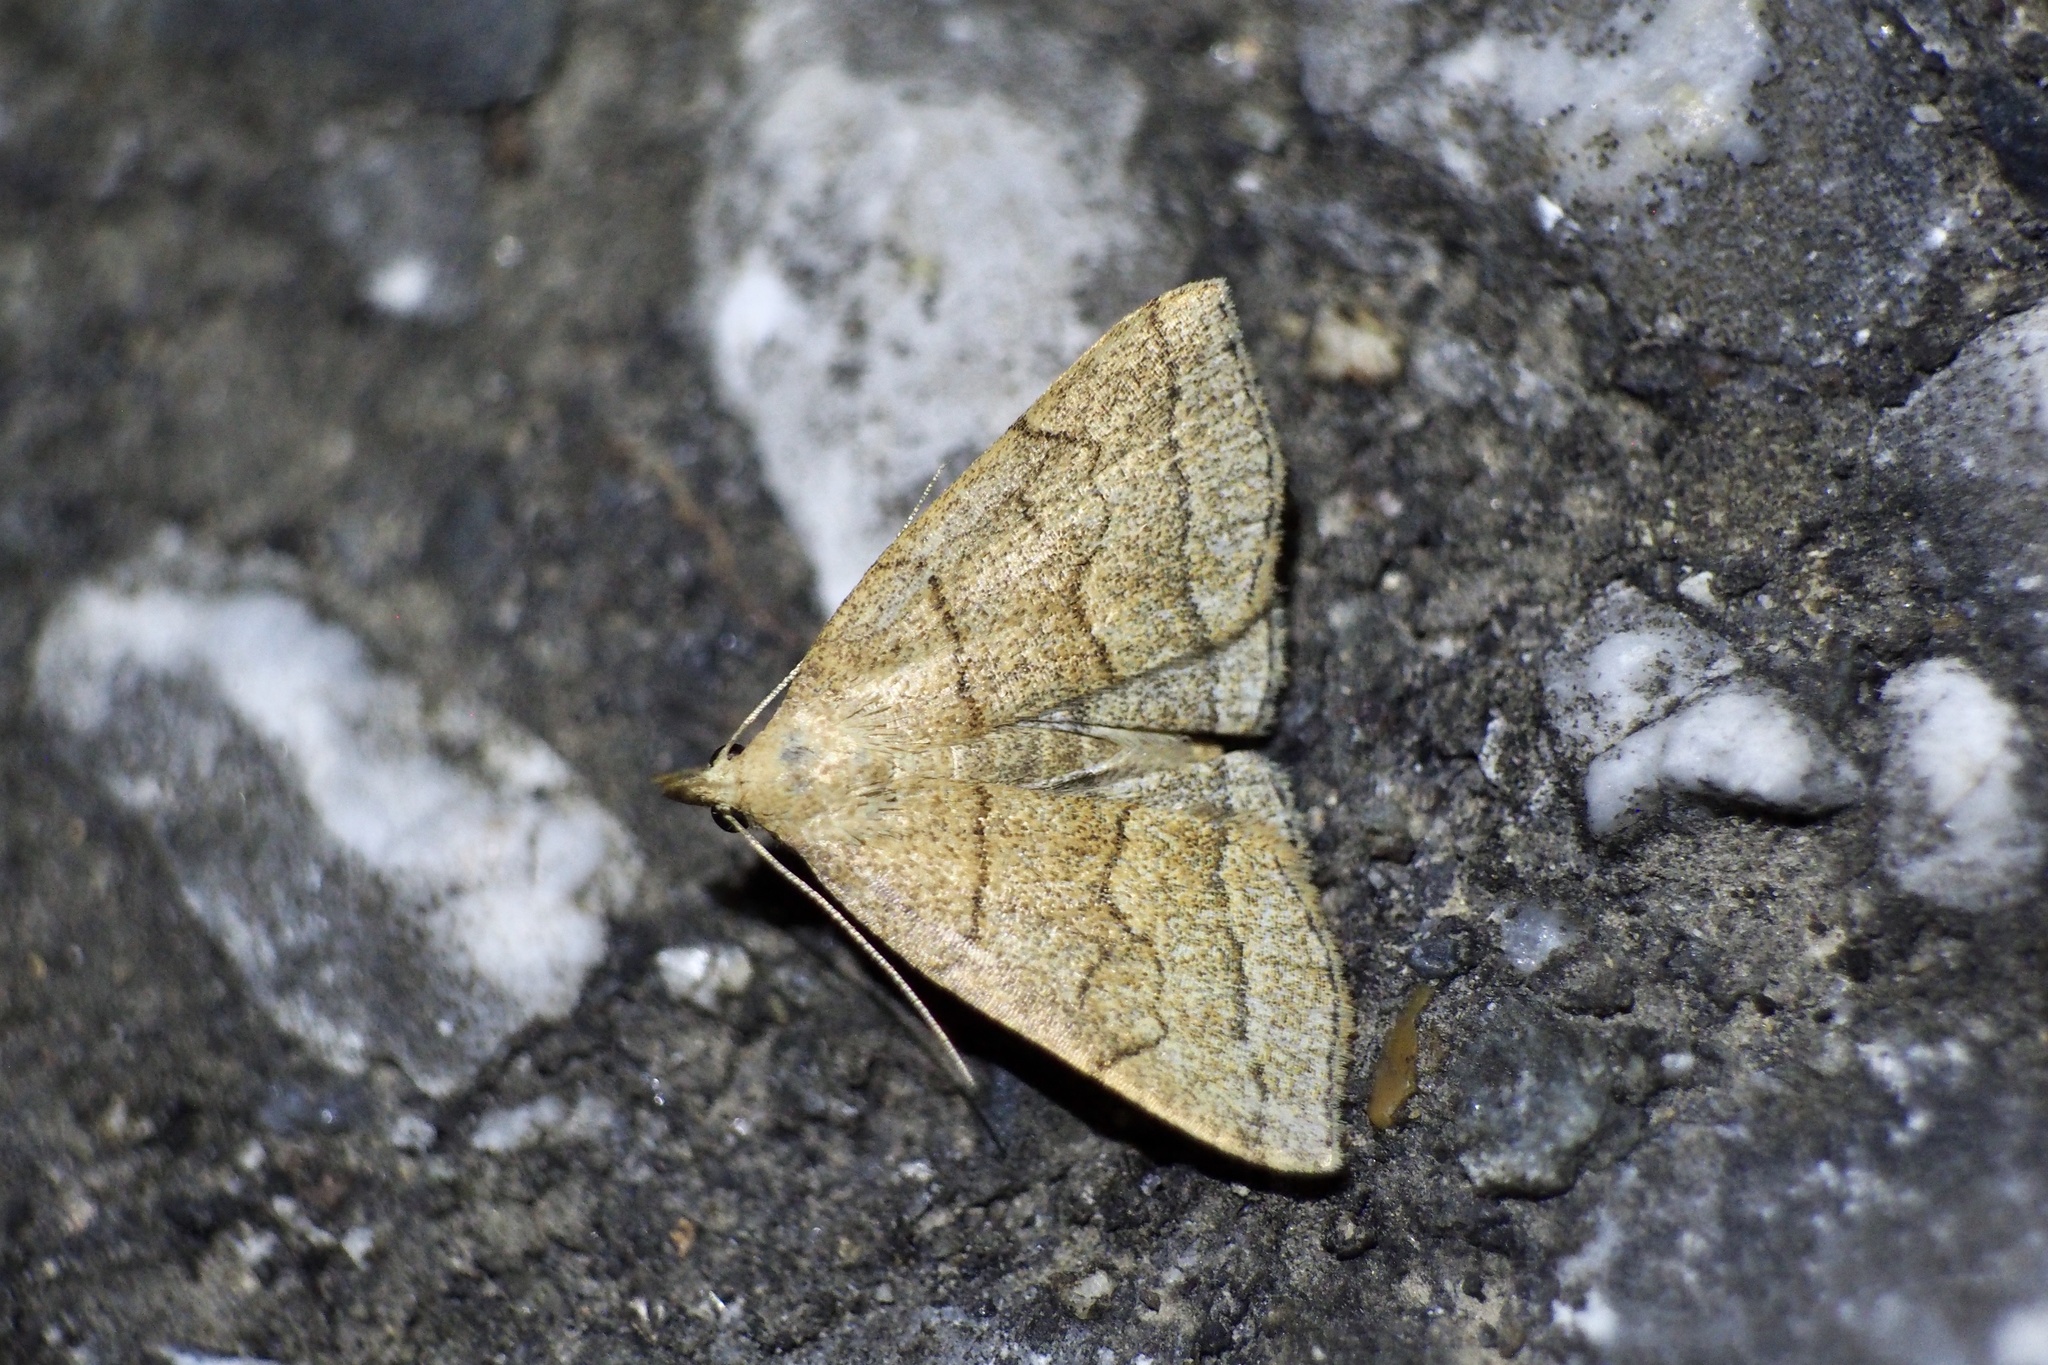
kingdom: Animalia
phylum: Arthropoda
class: Insecta
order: Lepidoptera
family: Erebidae
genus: Herminia
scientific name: Herminia arenosa
